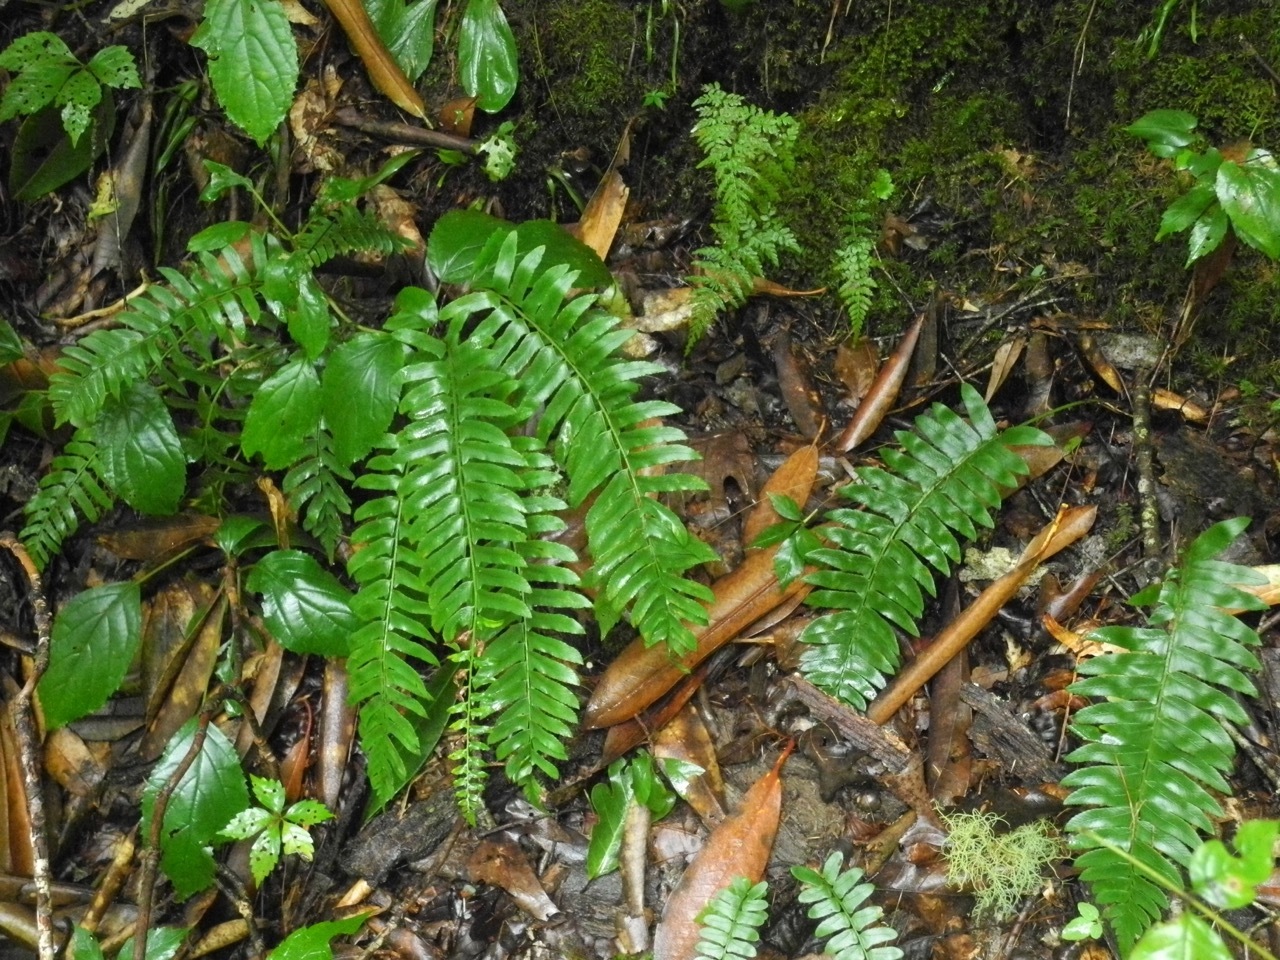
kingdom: Plantae
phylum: Tracheophyta
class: Polypodiopsida
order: Polypodiales
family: Dryopteridaceae
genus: Polystichum
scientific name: Polystichum acrostichoides
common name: Christmas fern
